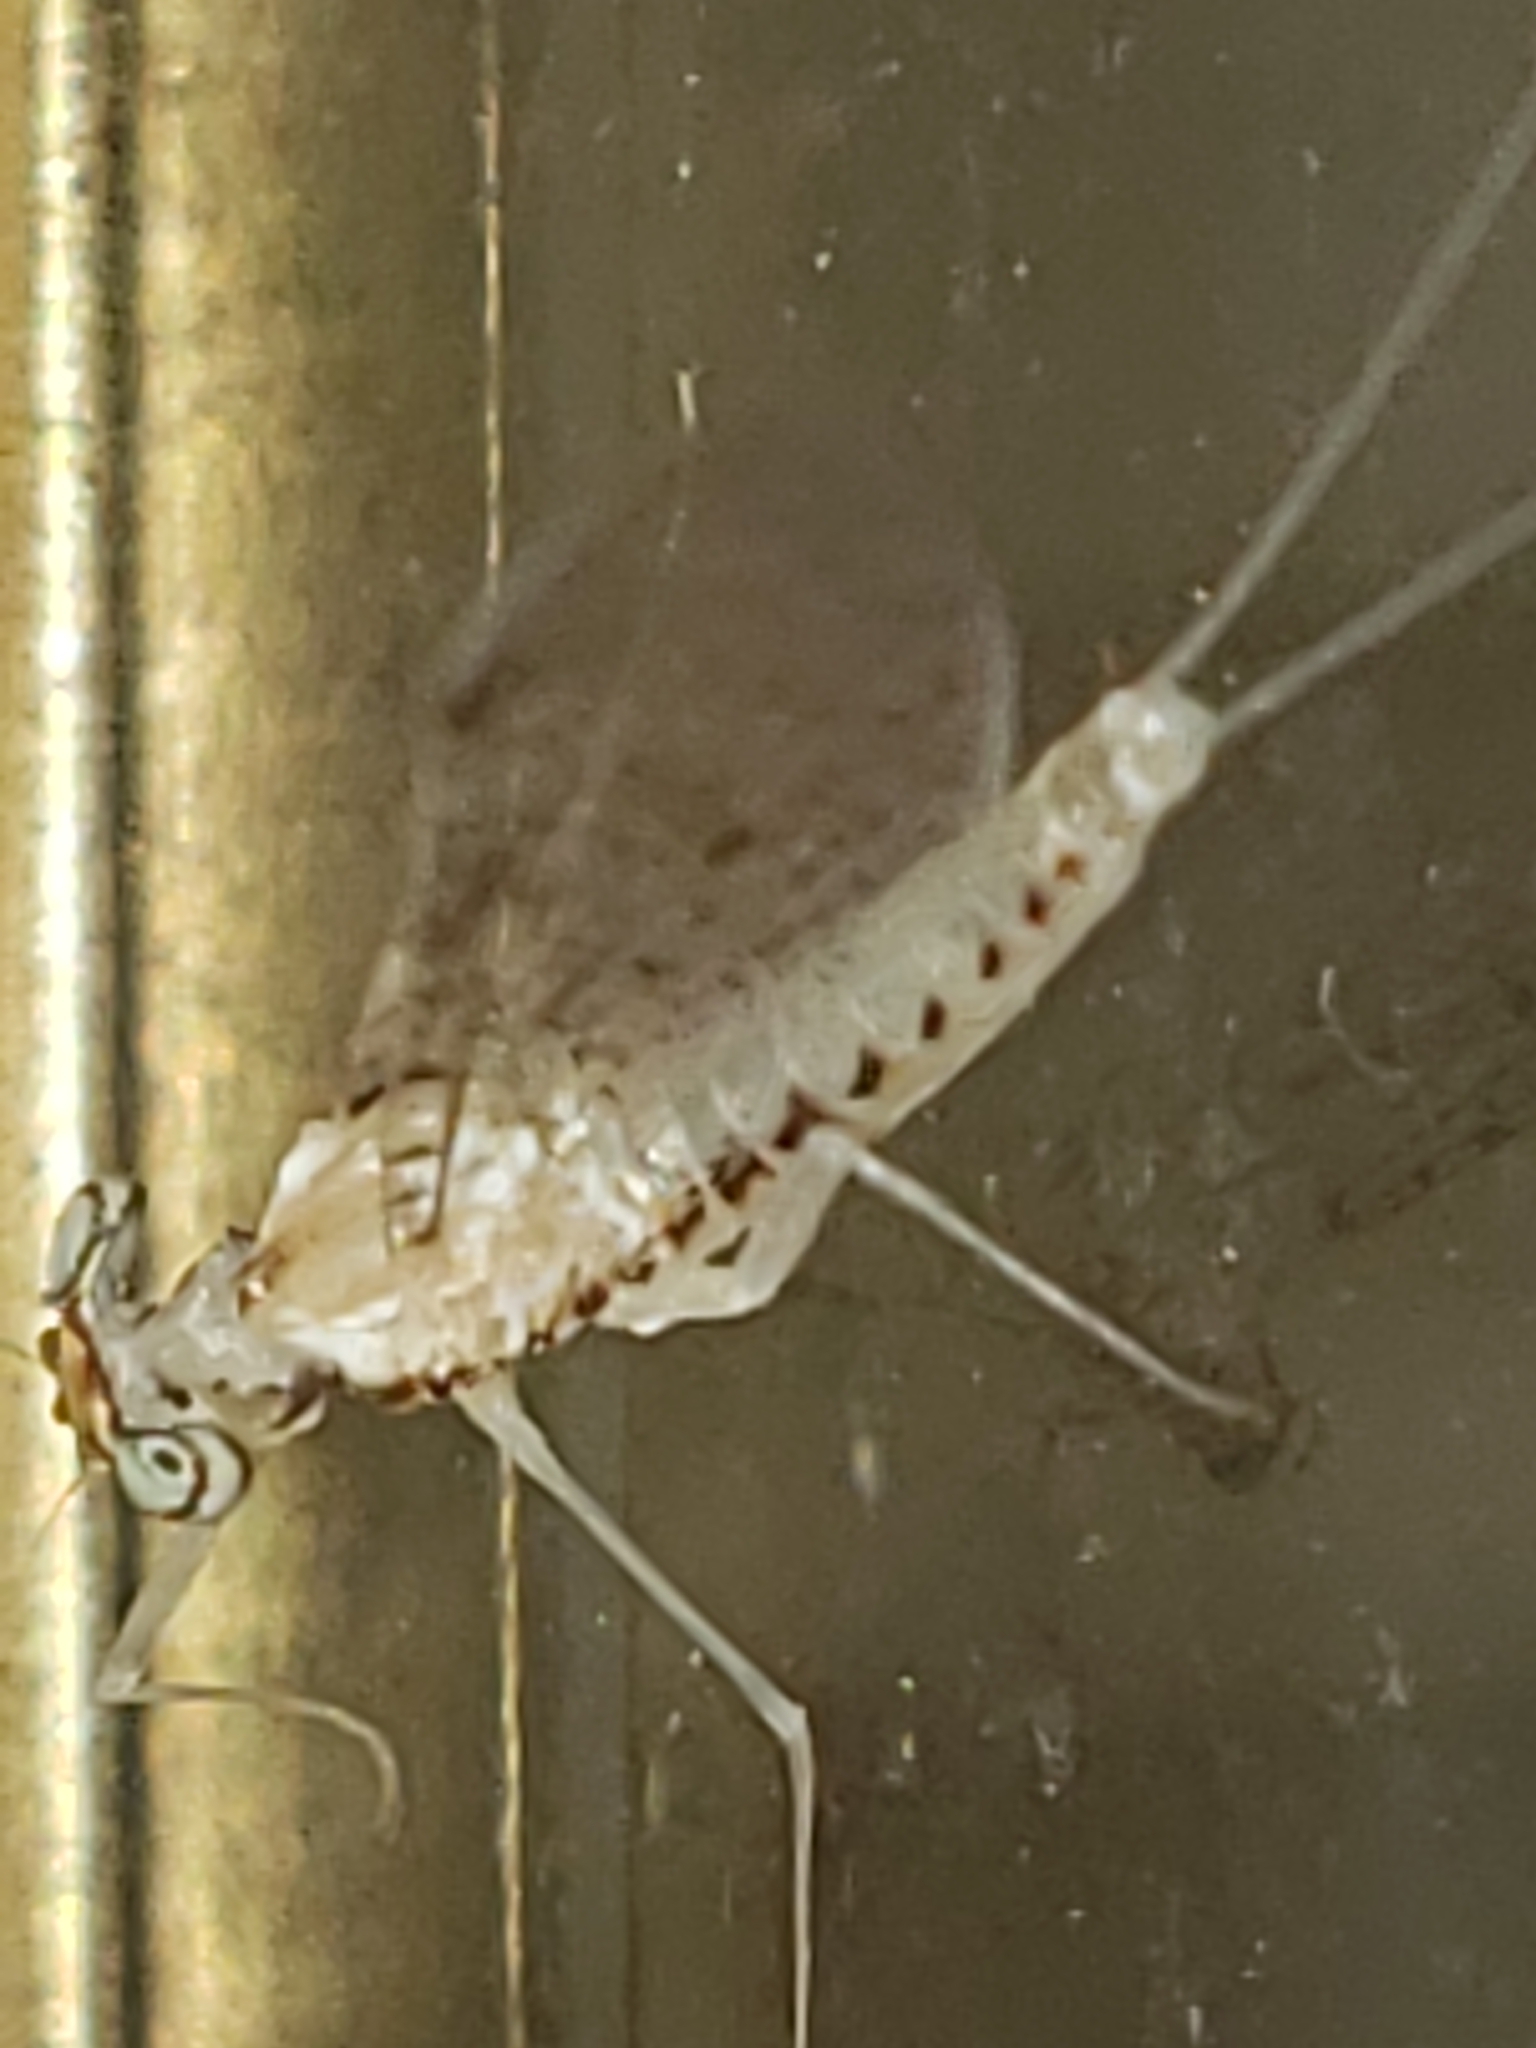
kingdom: Animalia
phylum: Arthropoda
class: Insecta
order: Ephemeroptera
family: Heptageniidae
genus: Leucrocuta
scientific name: Leucrocuta minerva
